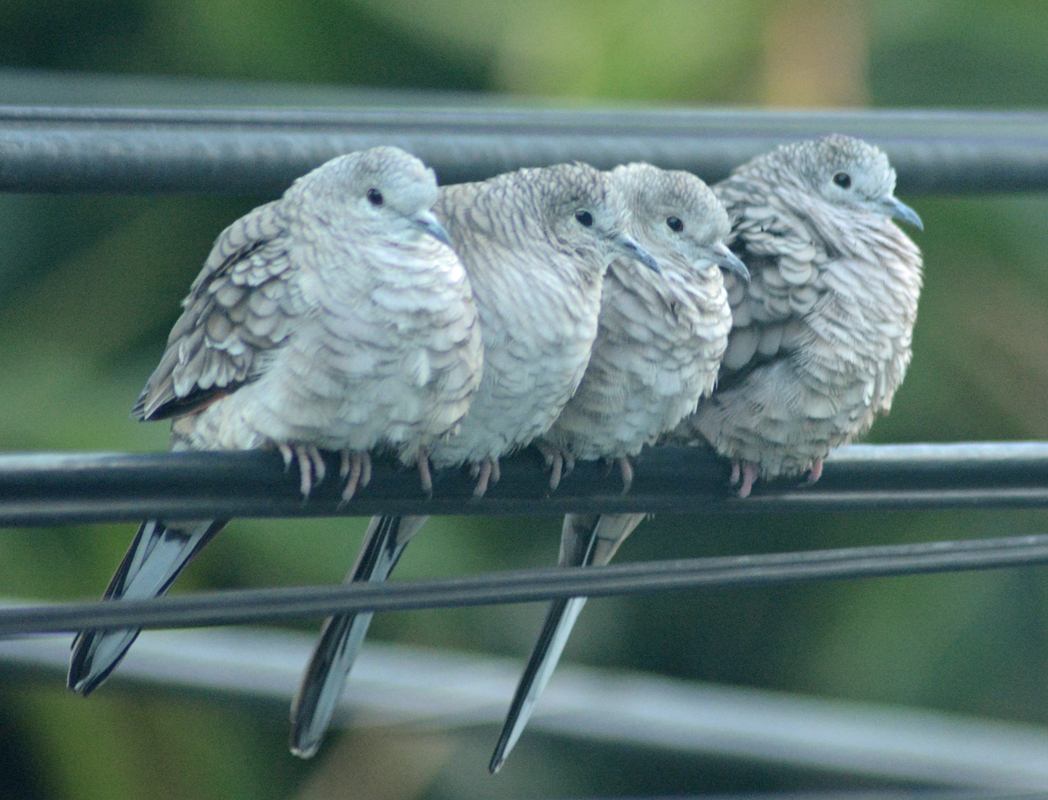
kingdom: Animalia
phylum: Chordata
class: Aves
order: Columbiformes
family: Columbidae
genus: Columbina
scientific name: Columbina inca
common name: Inca dove
